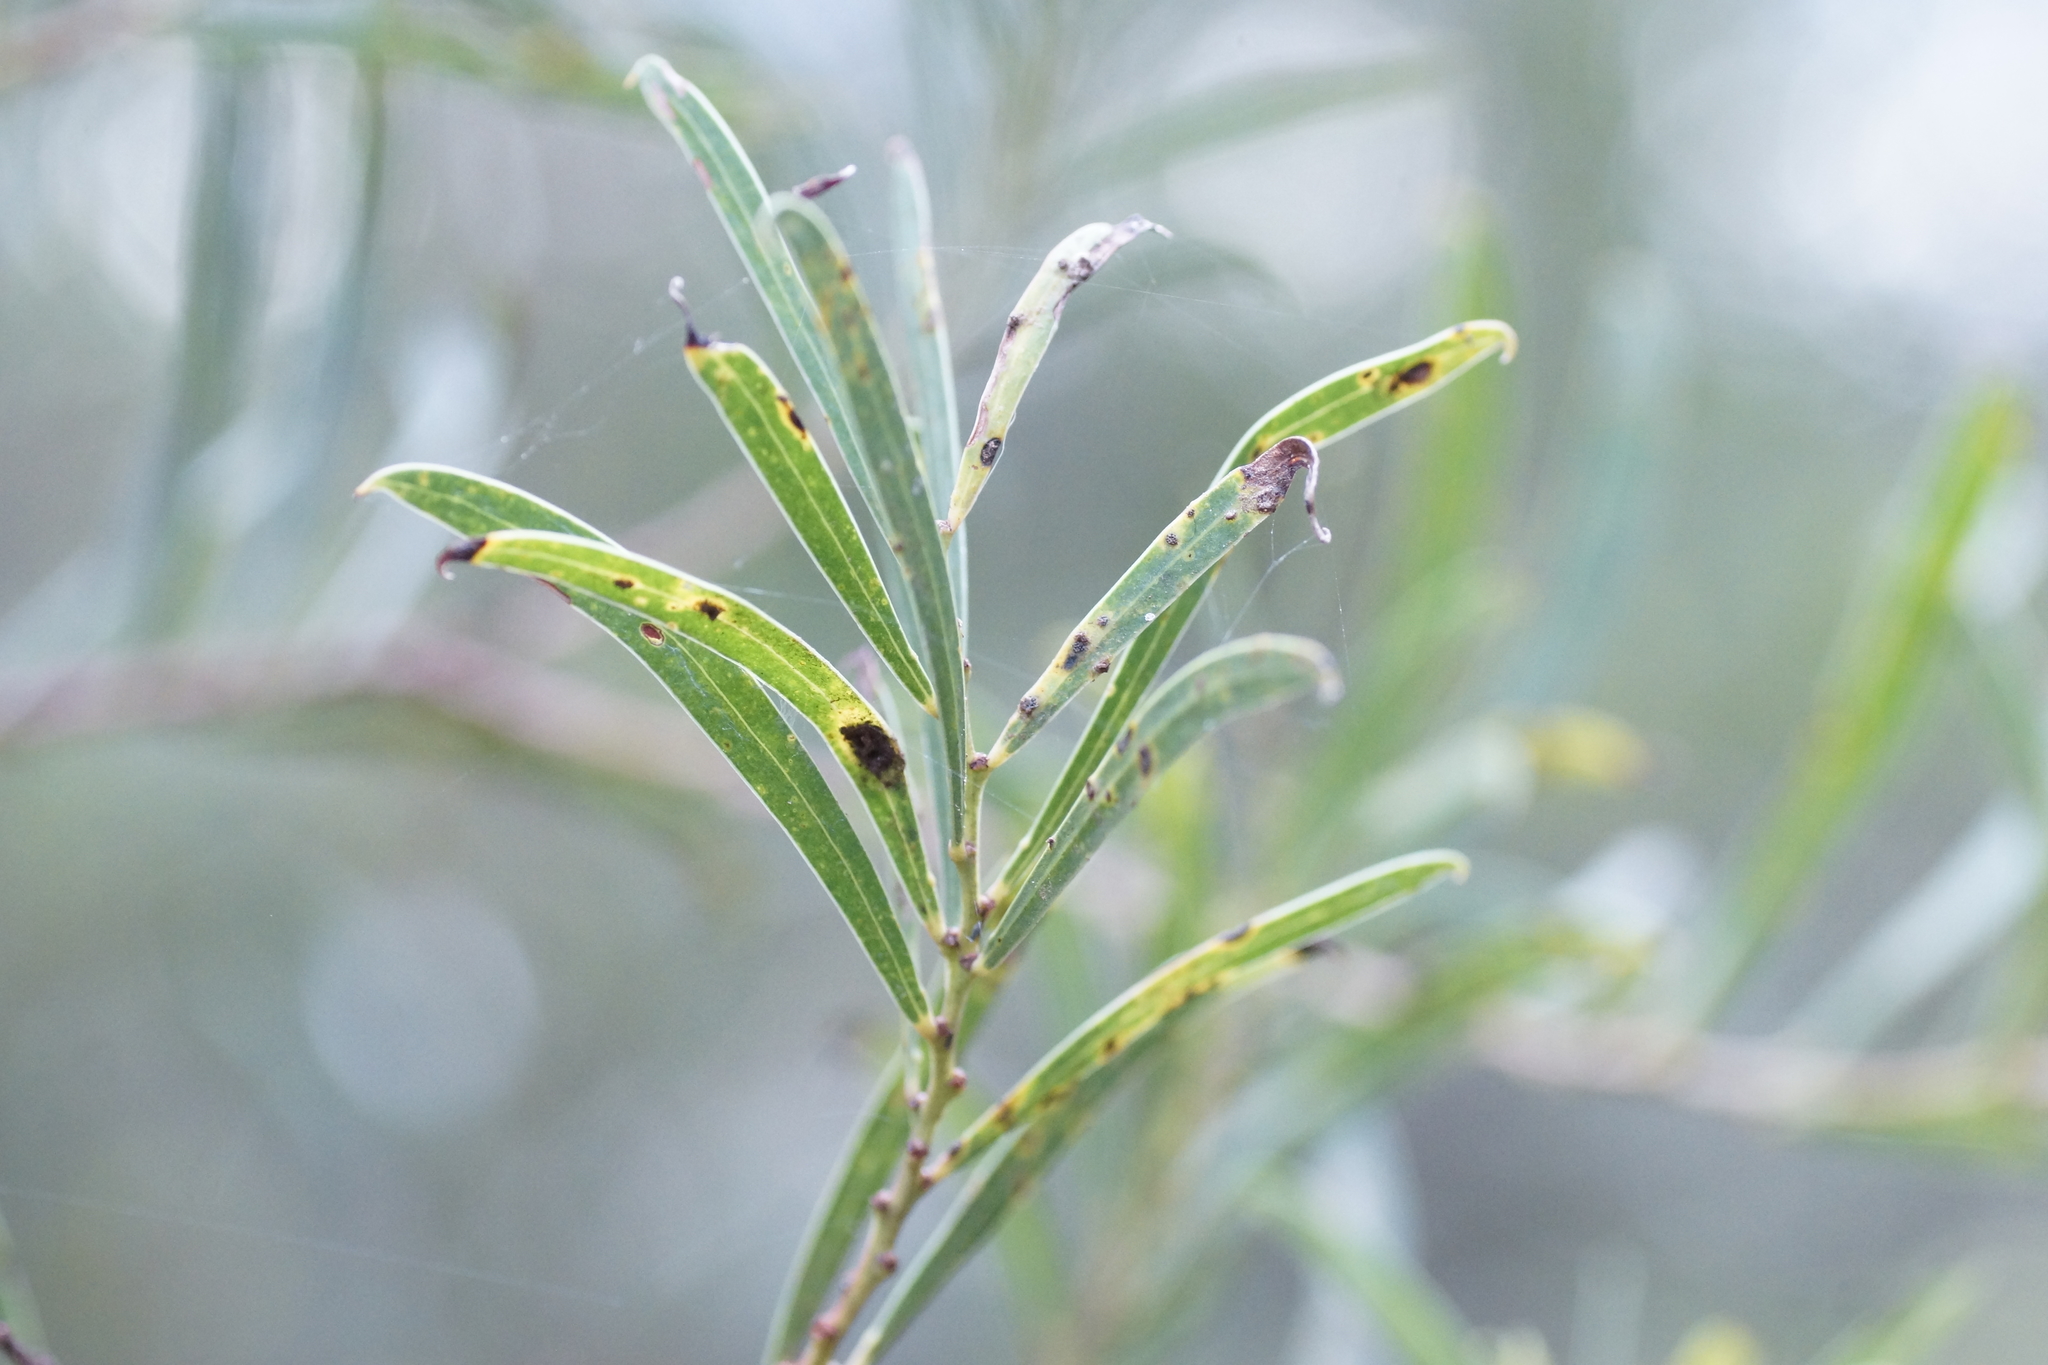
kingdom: Plantae
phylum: Tracheophyta
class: Magnoliopsida
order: Fabales
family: Fabaceae
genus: Acacia
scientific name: Acacia uncifolia
